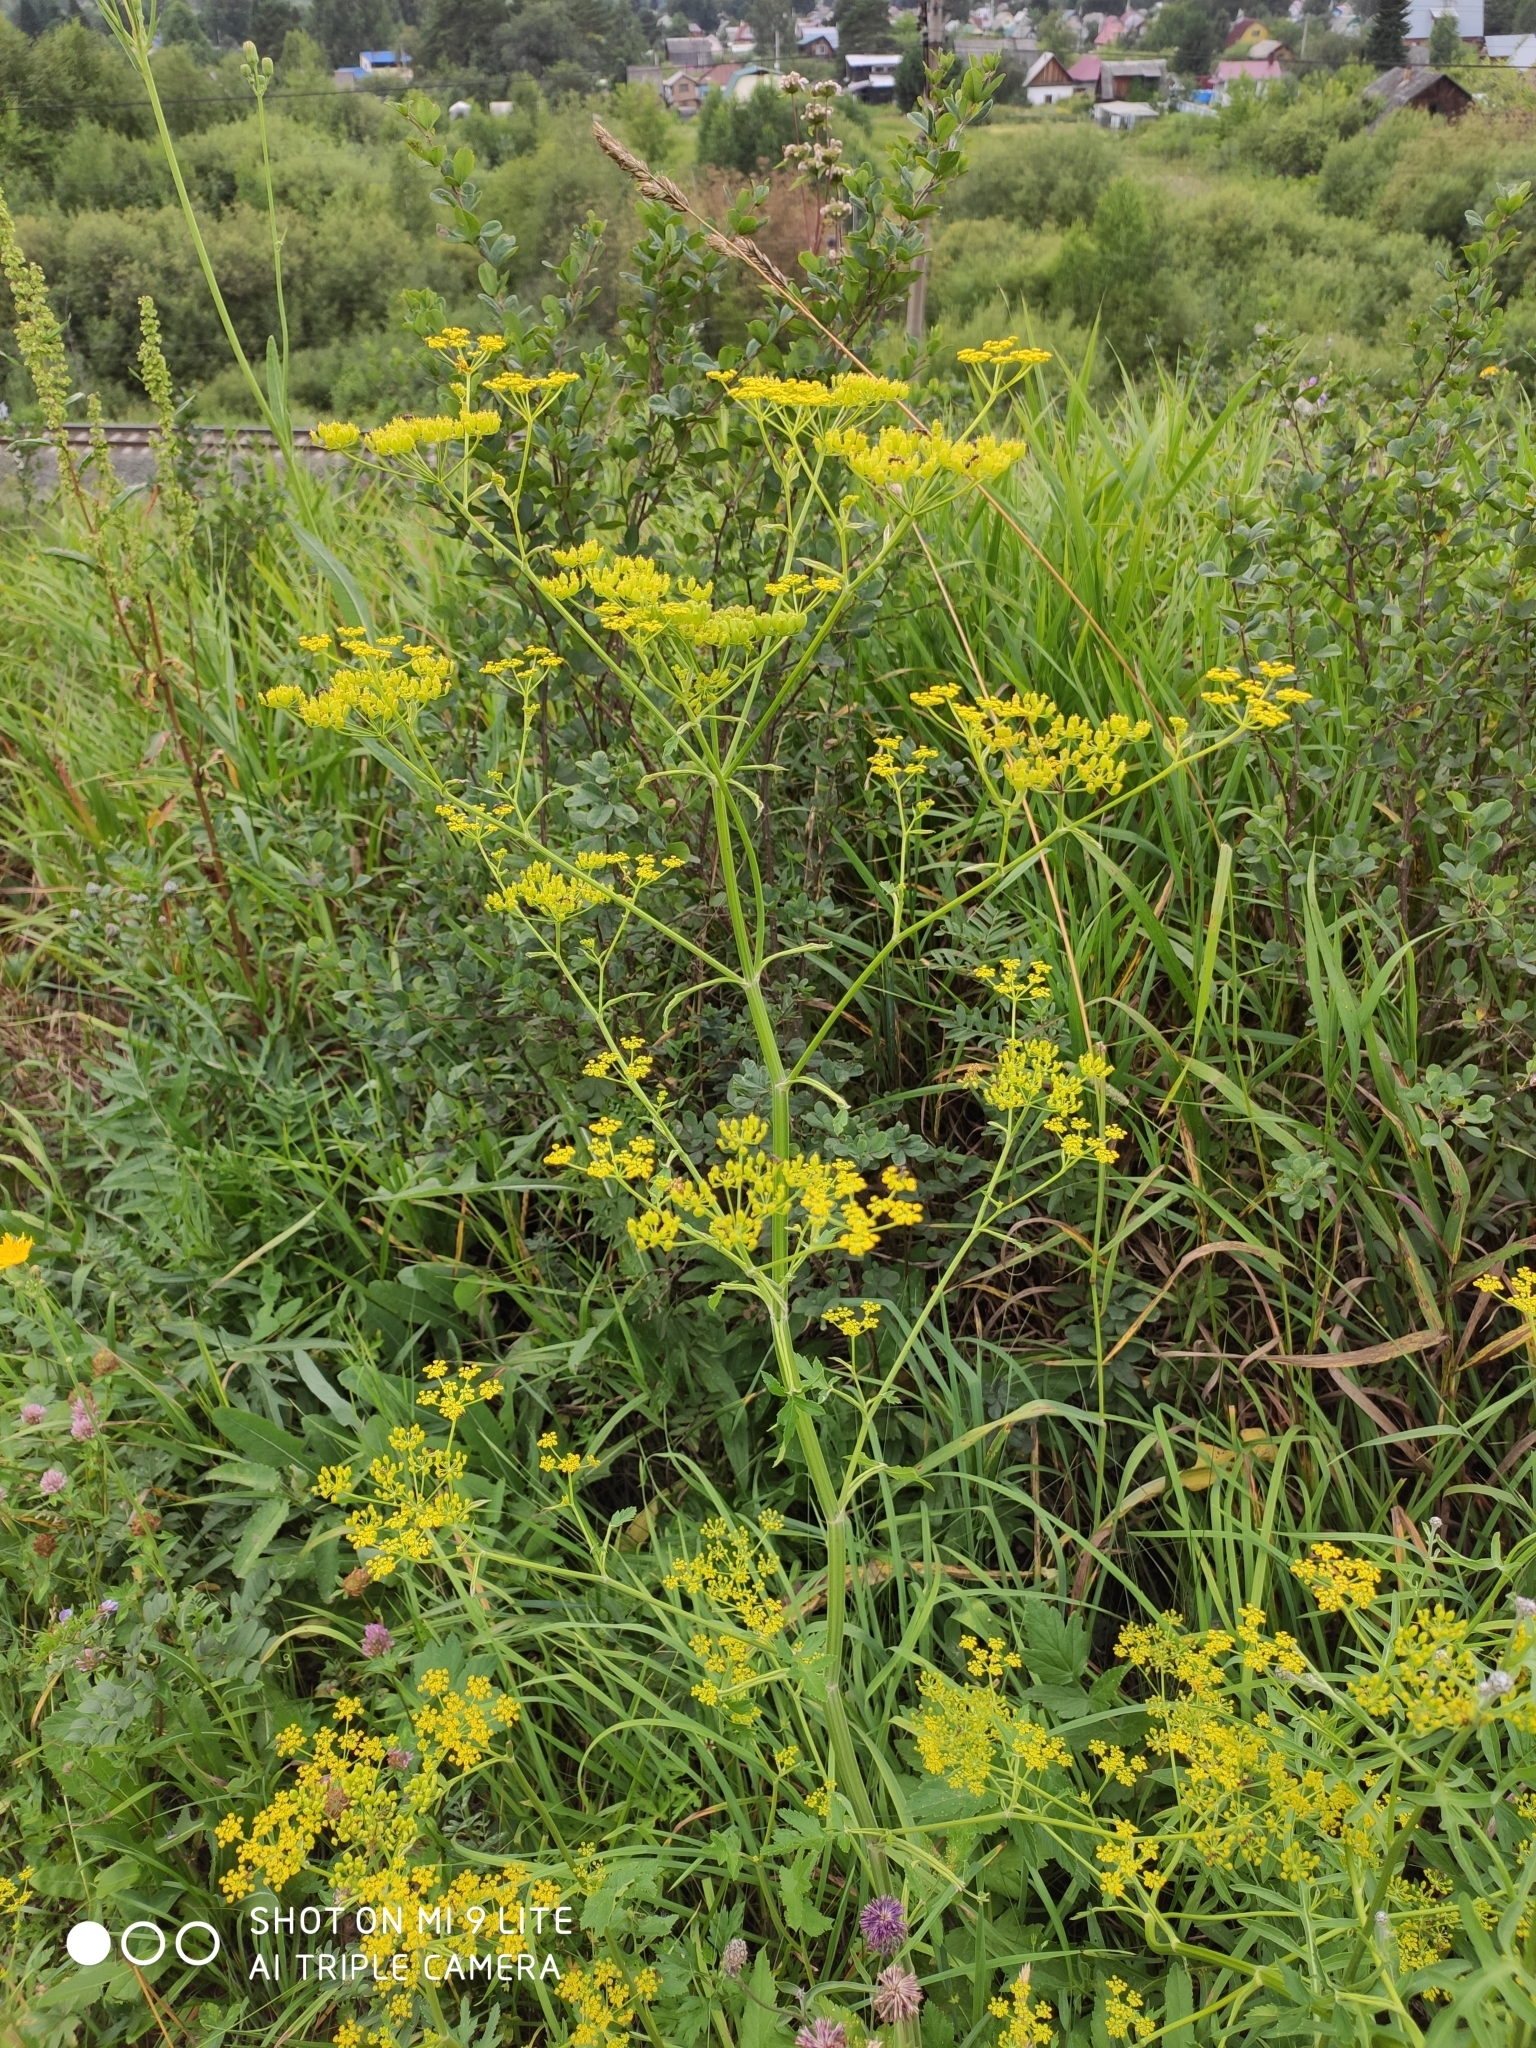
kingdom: Plantae
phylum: Tracheophyta
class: Magnoliopsida
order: Apiales
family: Apiaceae
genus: Pastinaca
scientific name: Pastinaca sativa
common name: Wild parsnip
